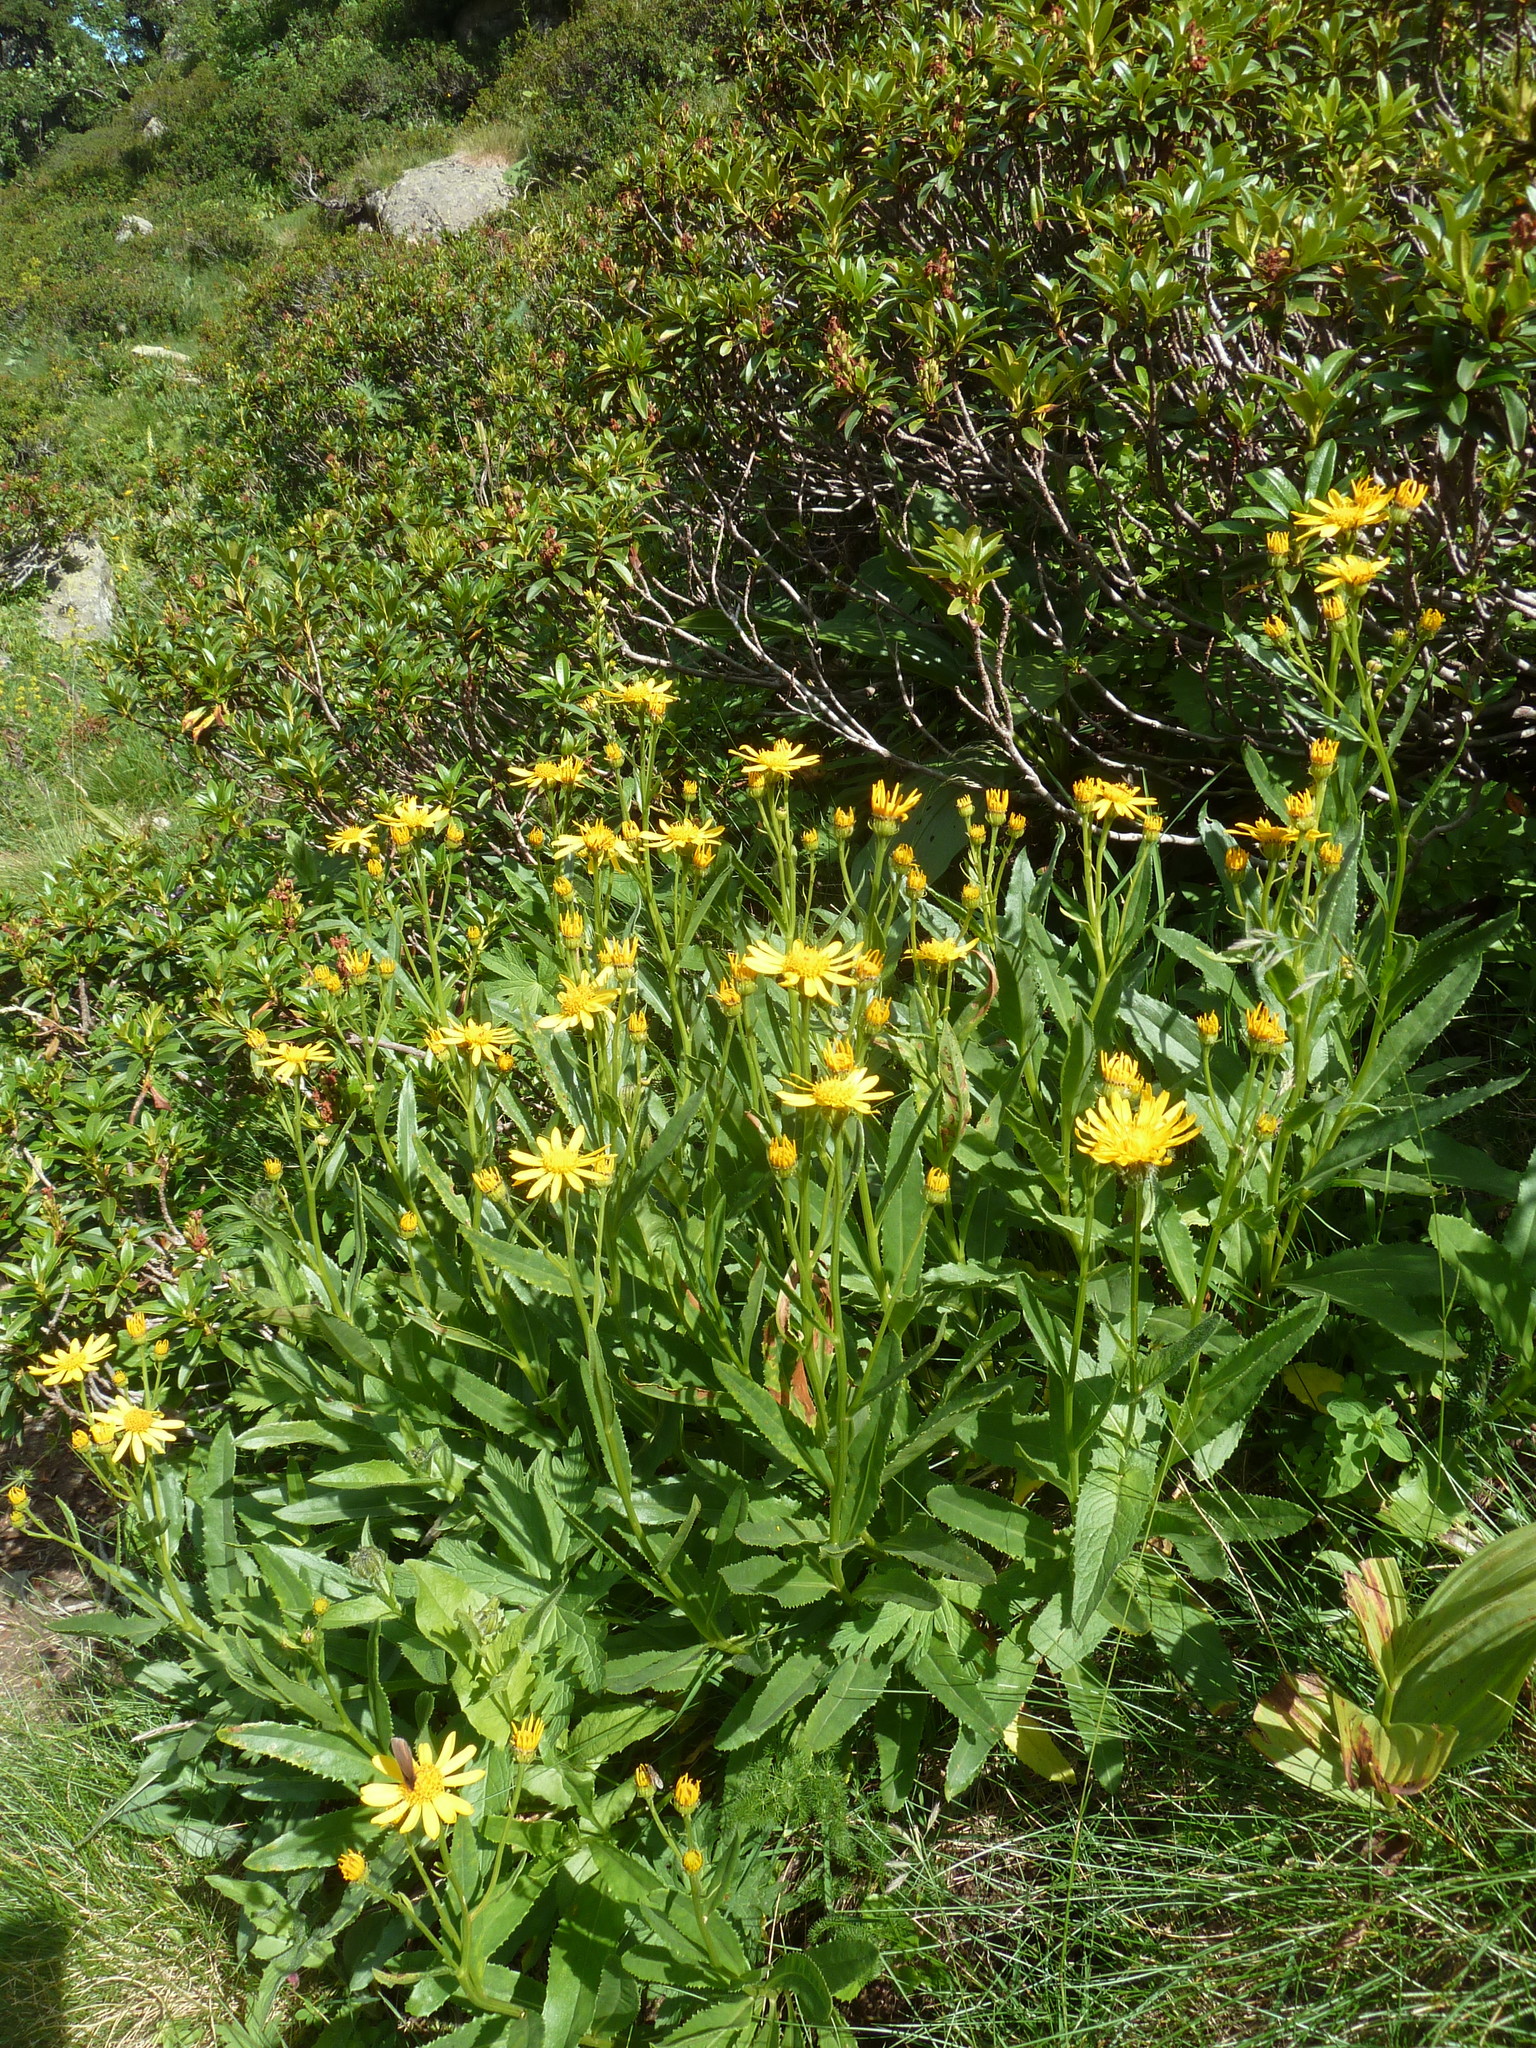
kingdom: Plantae
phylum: Tracheophyta
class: Magnoliopsida
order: Asterales
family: Asteraceae
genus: Senecio
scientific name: Senecio pyrenaicus
